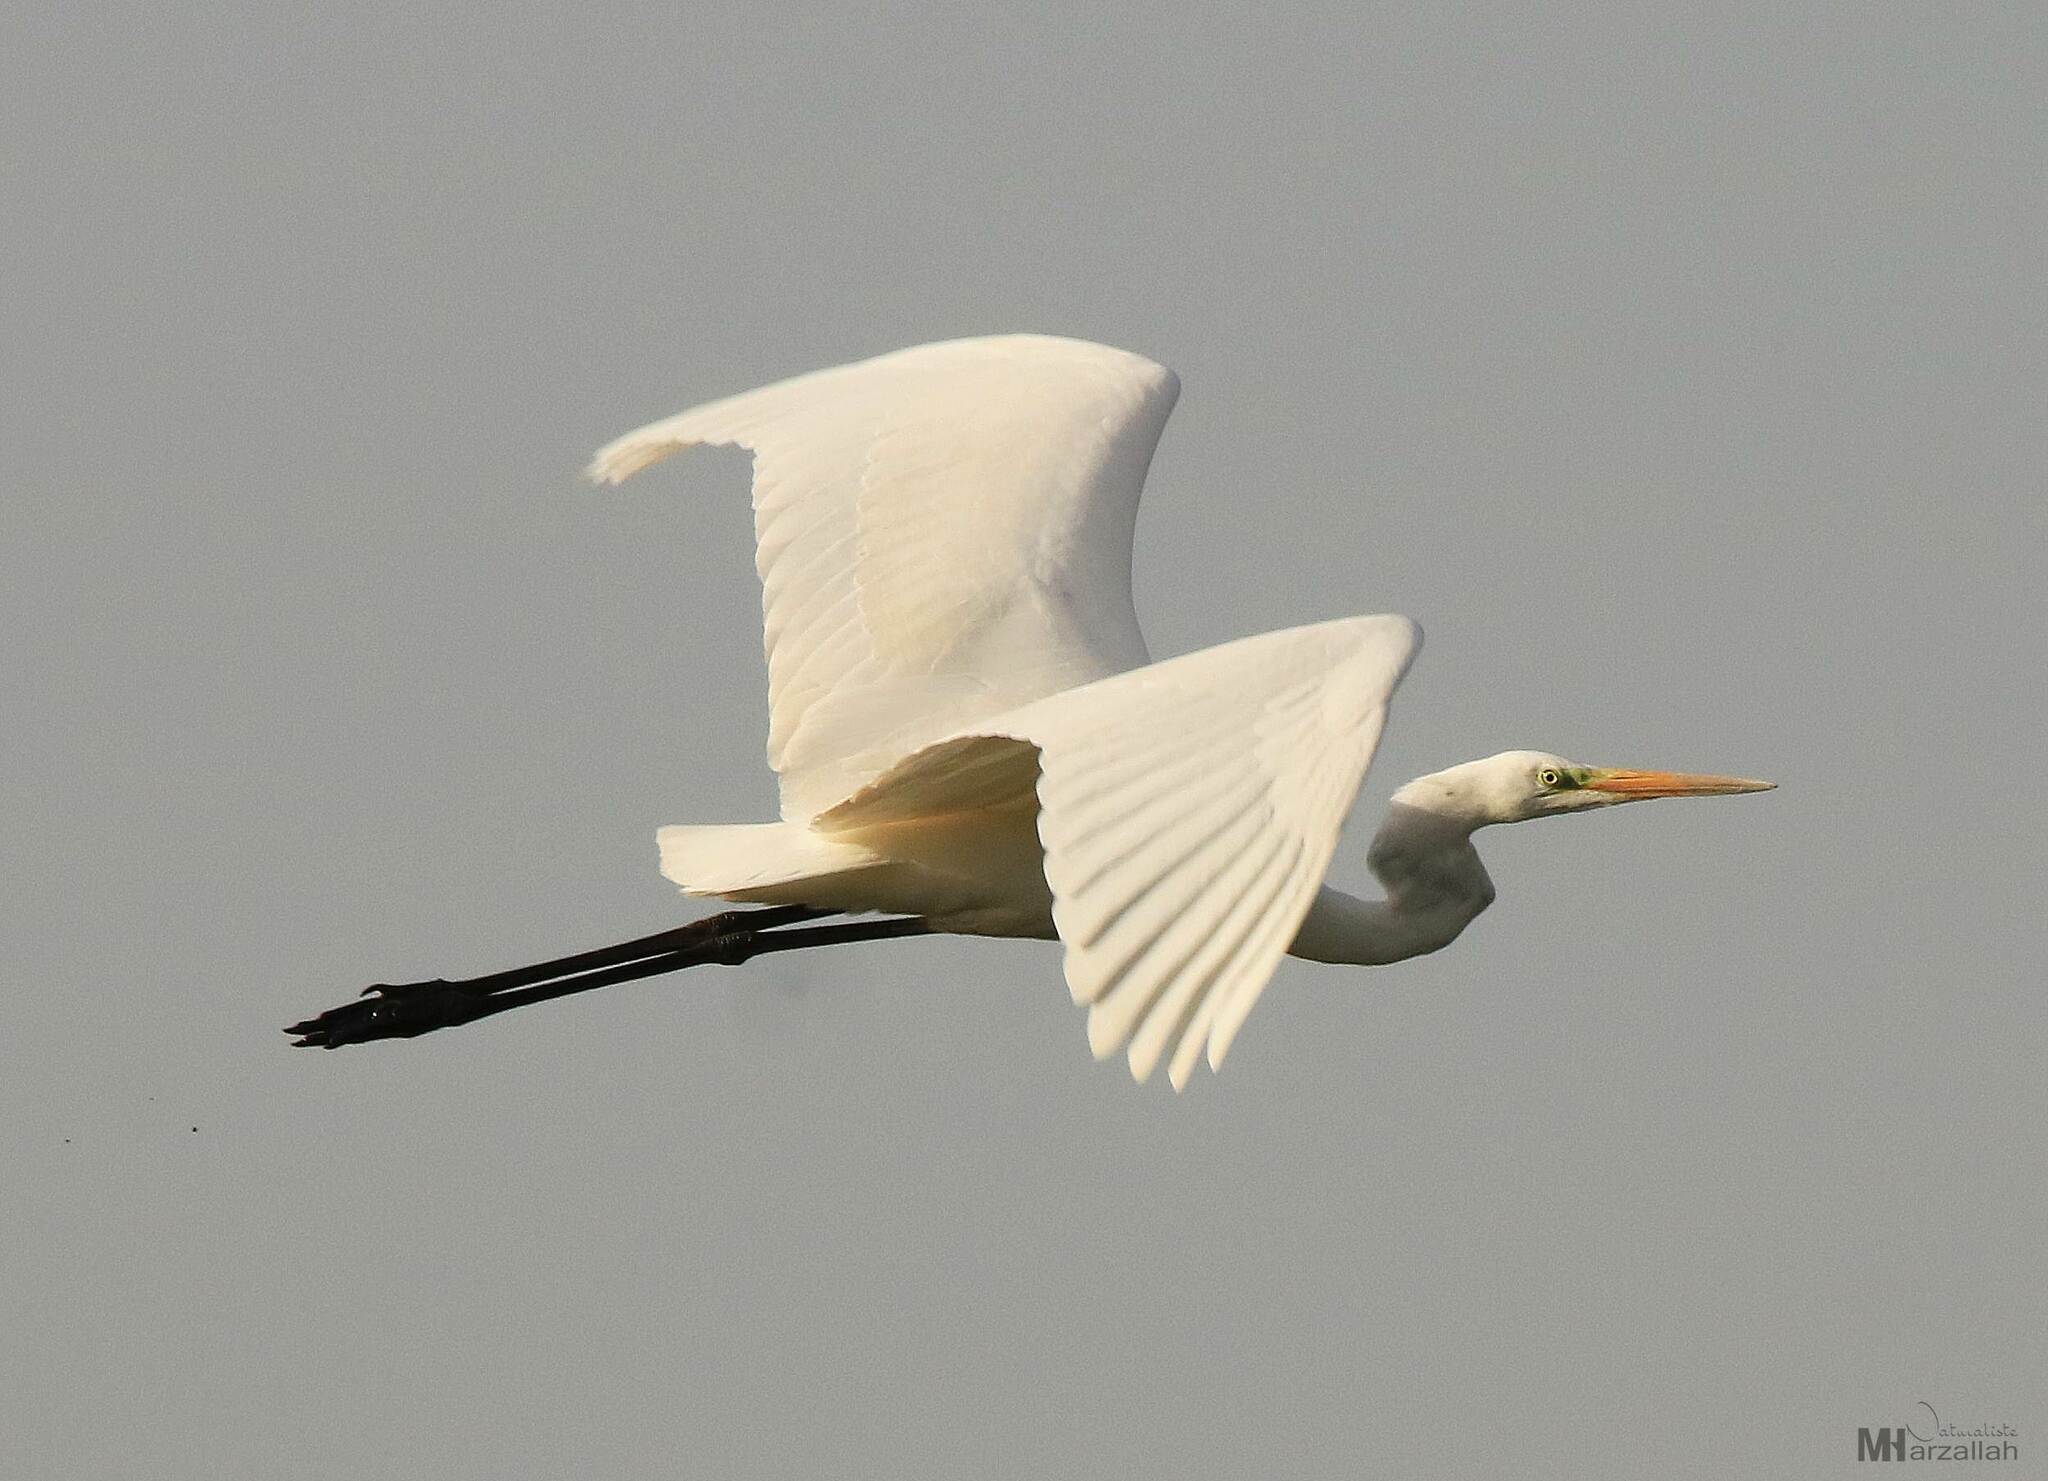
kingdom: Animalia
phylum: Chordata
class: Aves
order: Pelecaniformes
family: Ardeidae
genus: Ardea
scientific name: Ardea alba
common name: Great egret
